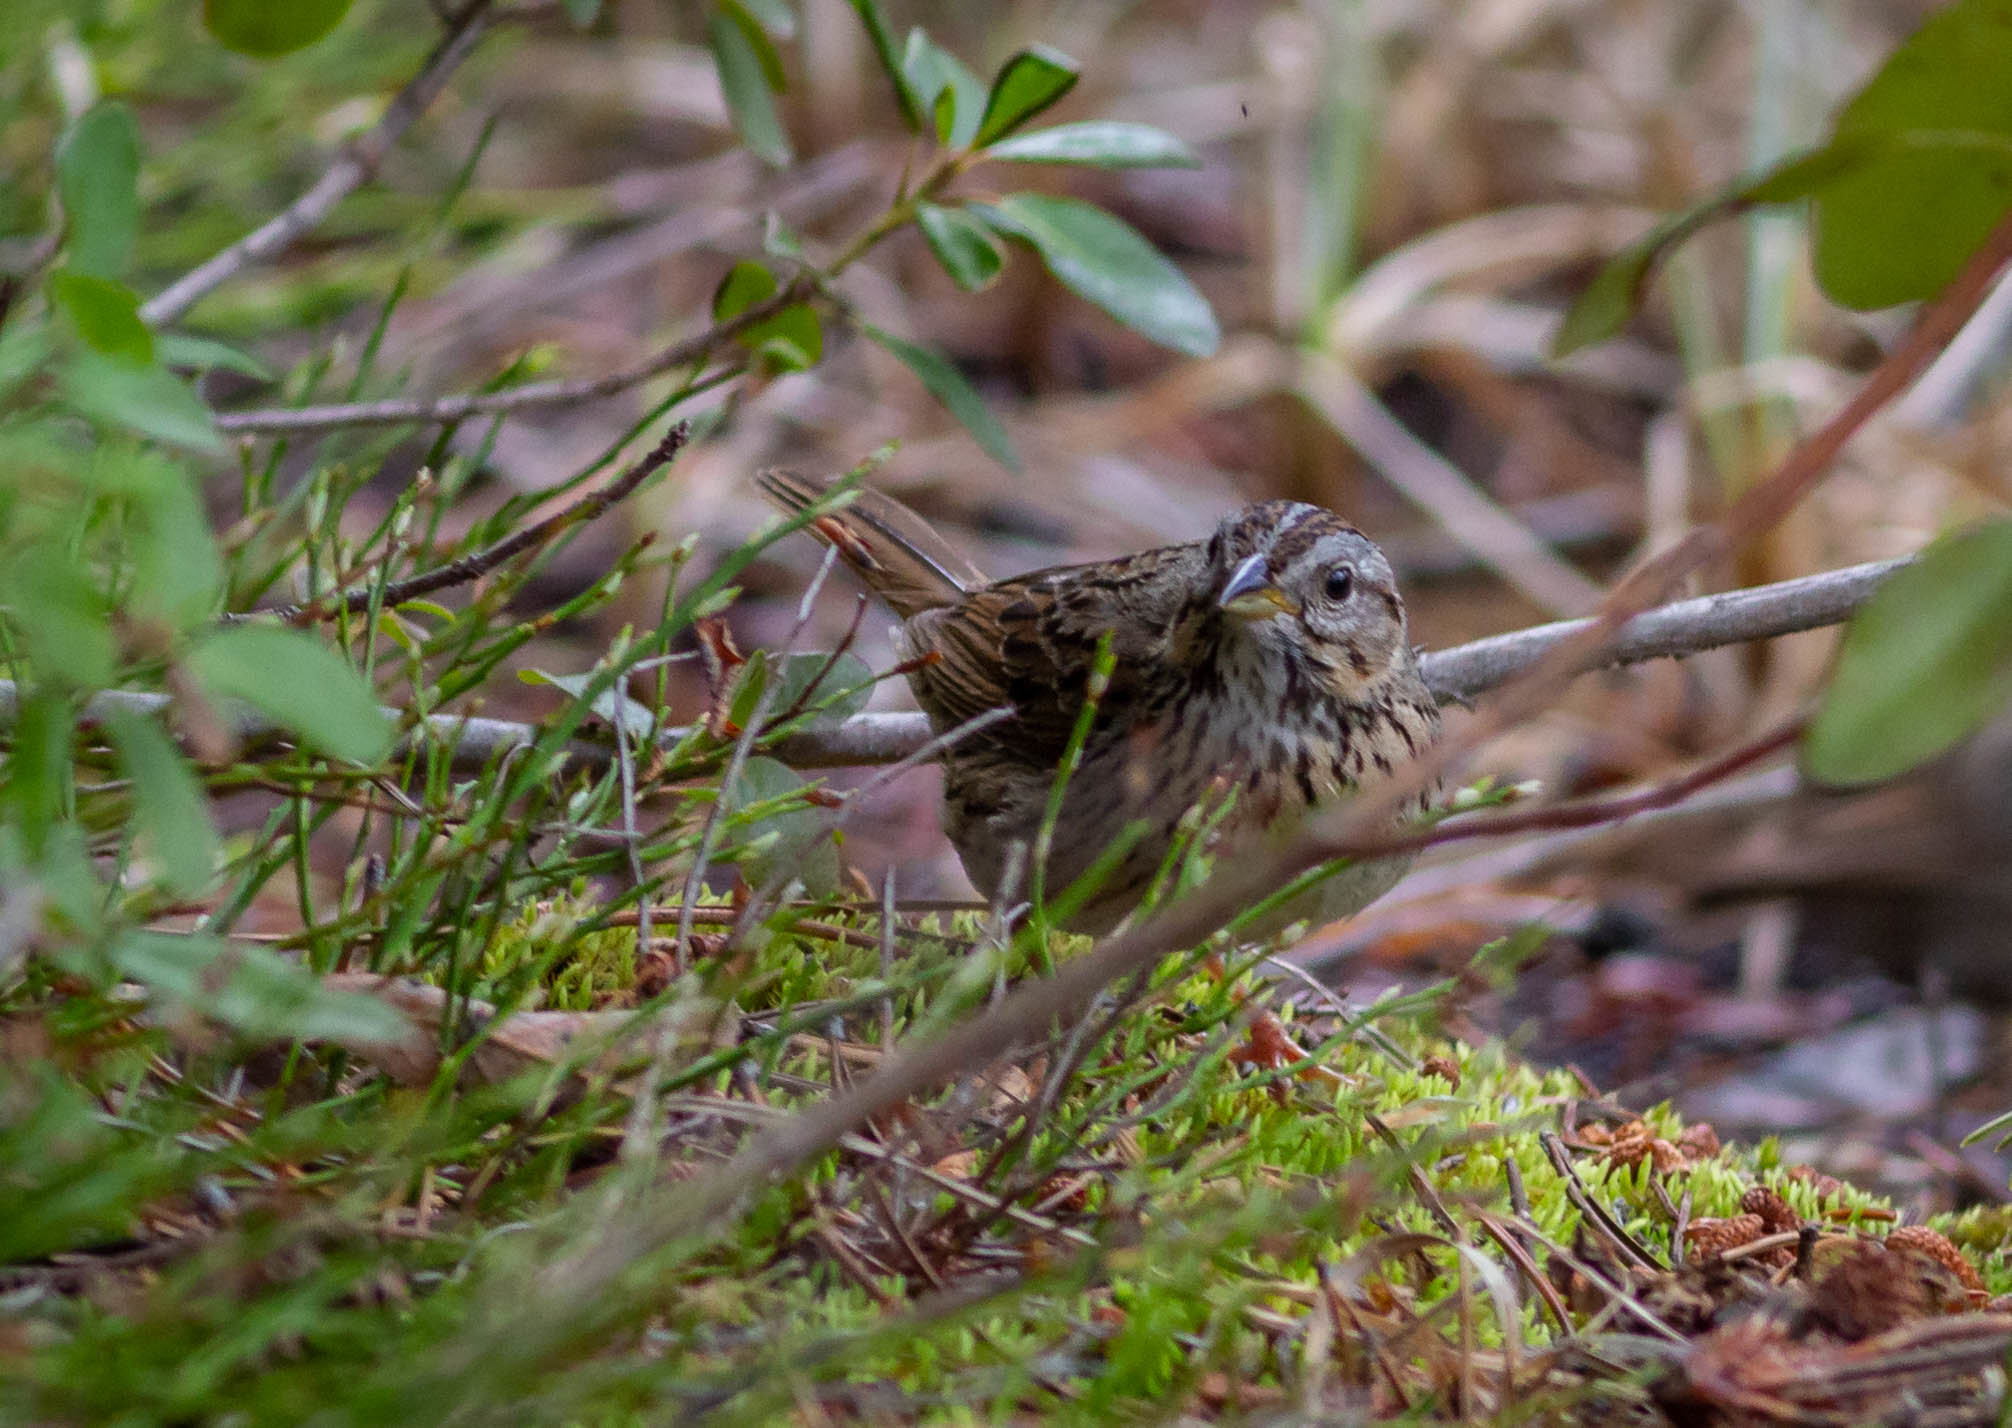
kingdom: Animalia
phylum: Chordata
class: Aves
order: Passeriformes
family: Passerellidae
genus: Melospiza
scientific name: Melospiza lincolnii
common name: Lincoln's sparrow
